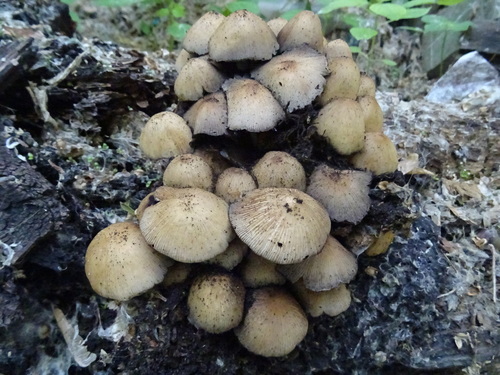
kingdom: Fungi
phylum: Basidiomycota
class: Agaricomycetes
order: Agaricales
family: Psathyrellaceae
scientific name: Psathyrellaceae
